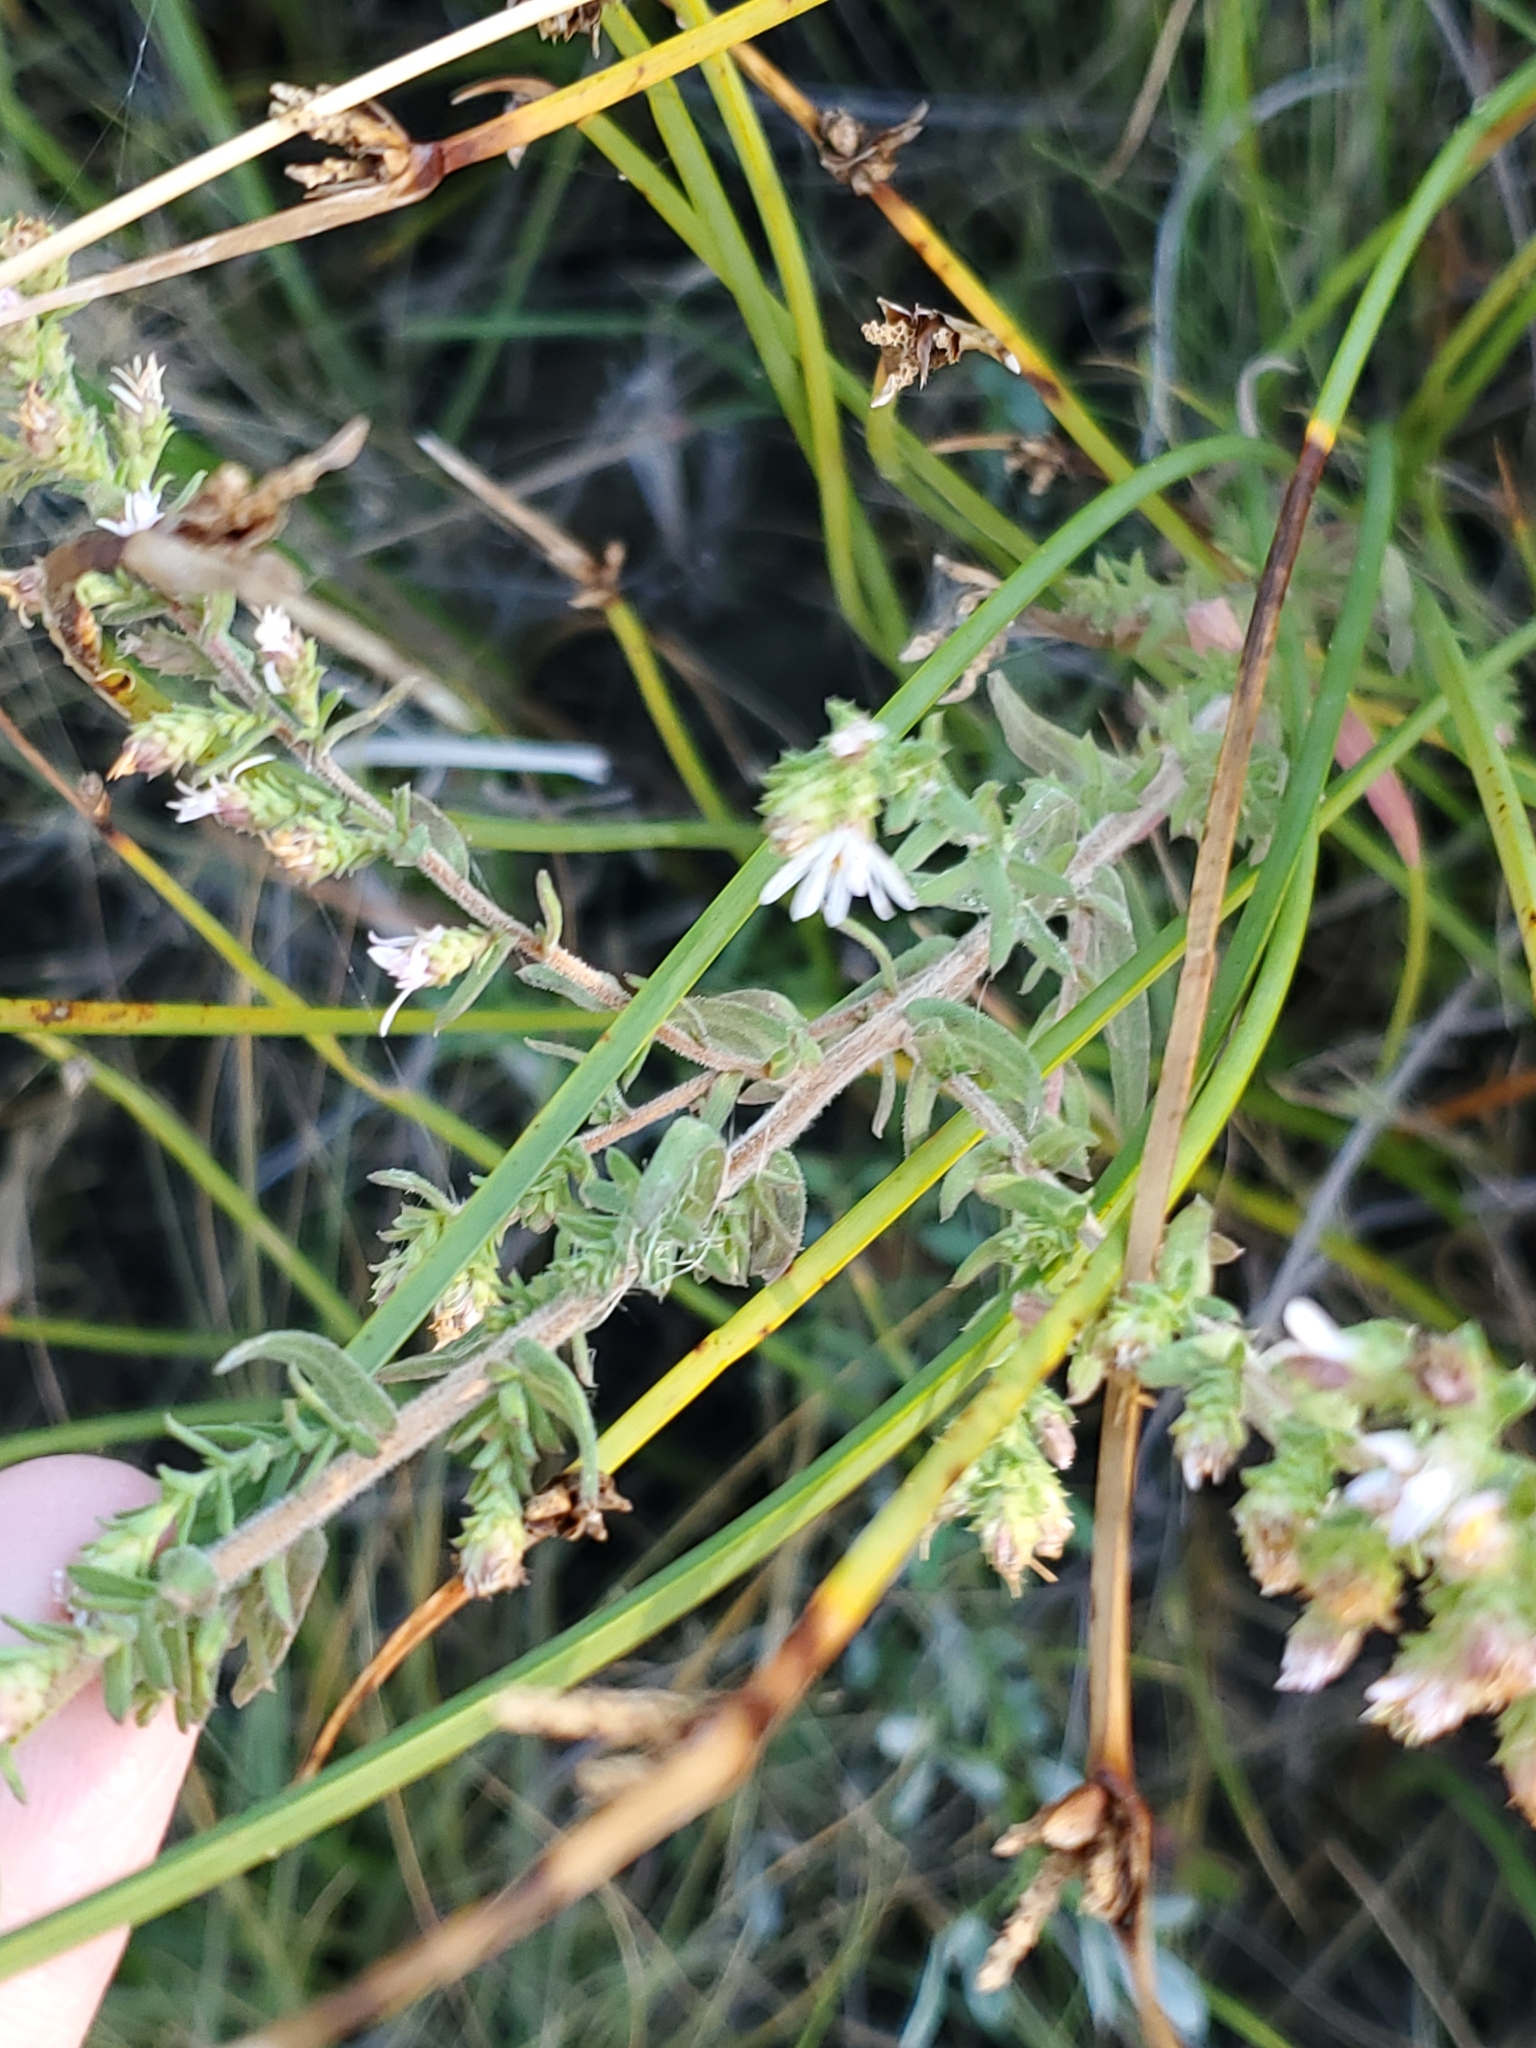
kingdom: Plantae
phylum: Tracheophyta
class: Magnoliopsida
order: Asterales
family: Asteraceae
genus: Symphyotrichum
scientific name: Symphyotrichum falcatum
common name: Creeping white prairie aster
